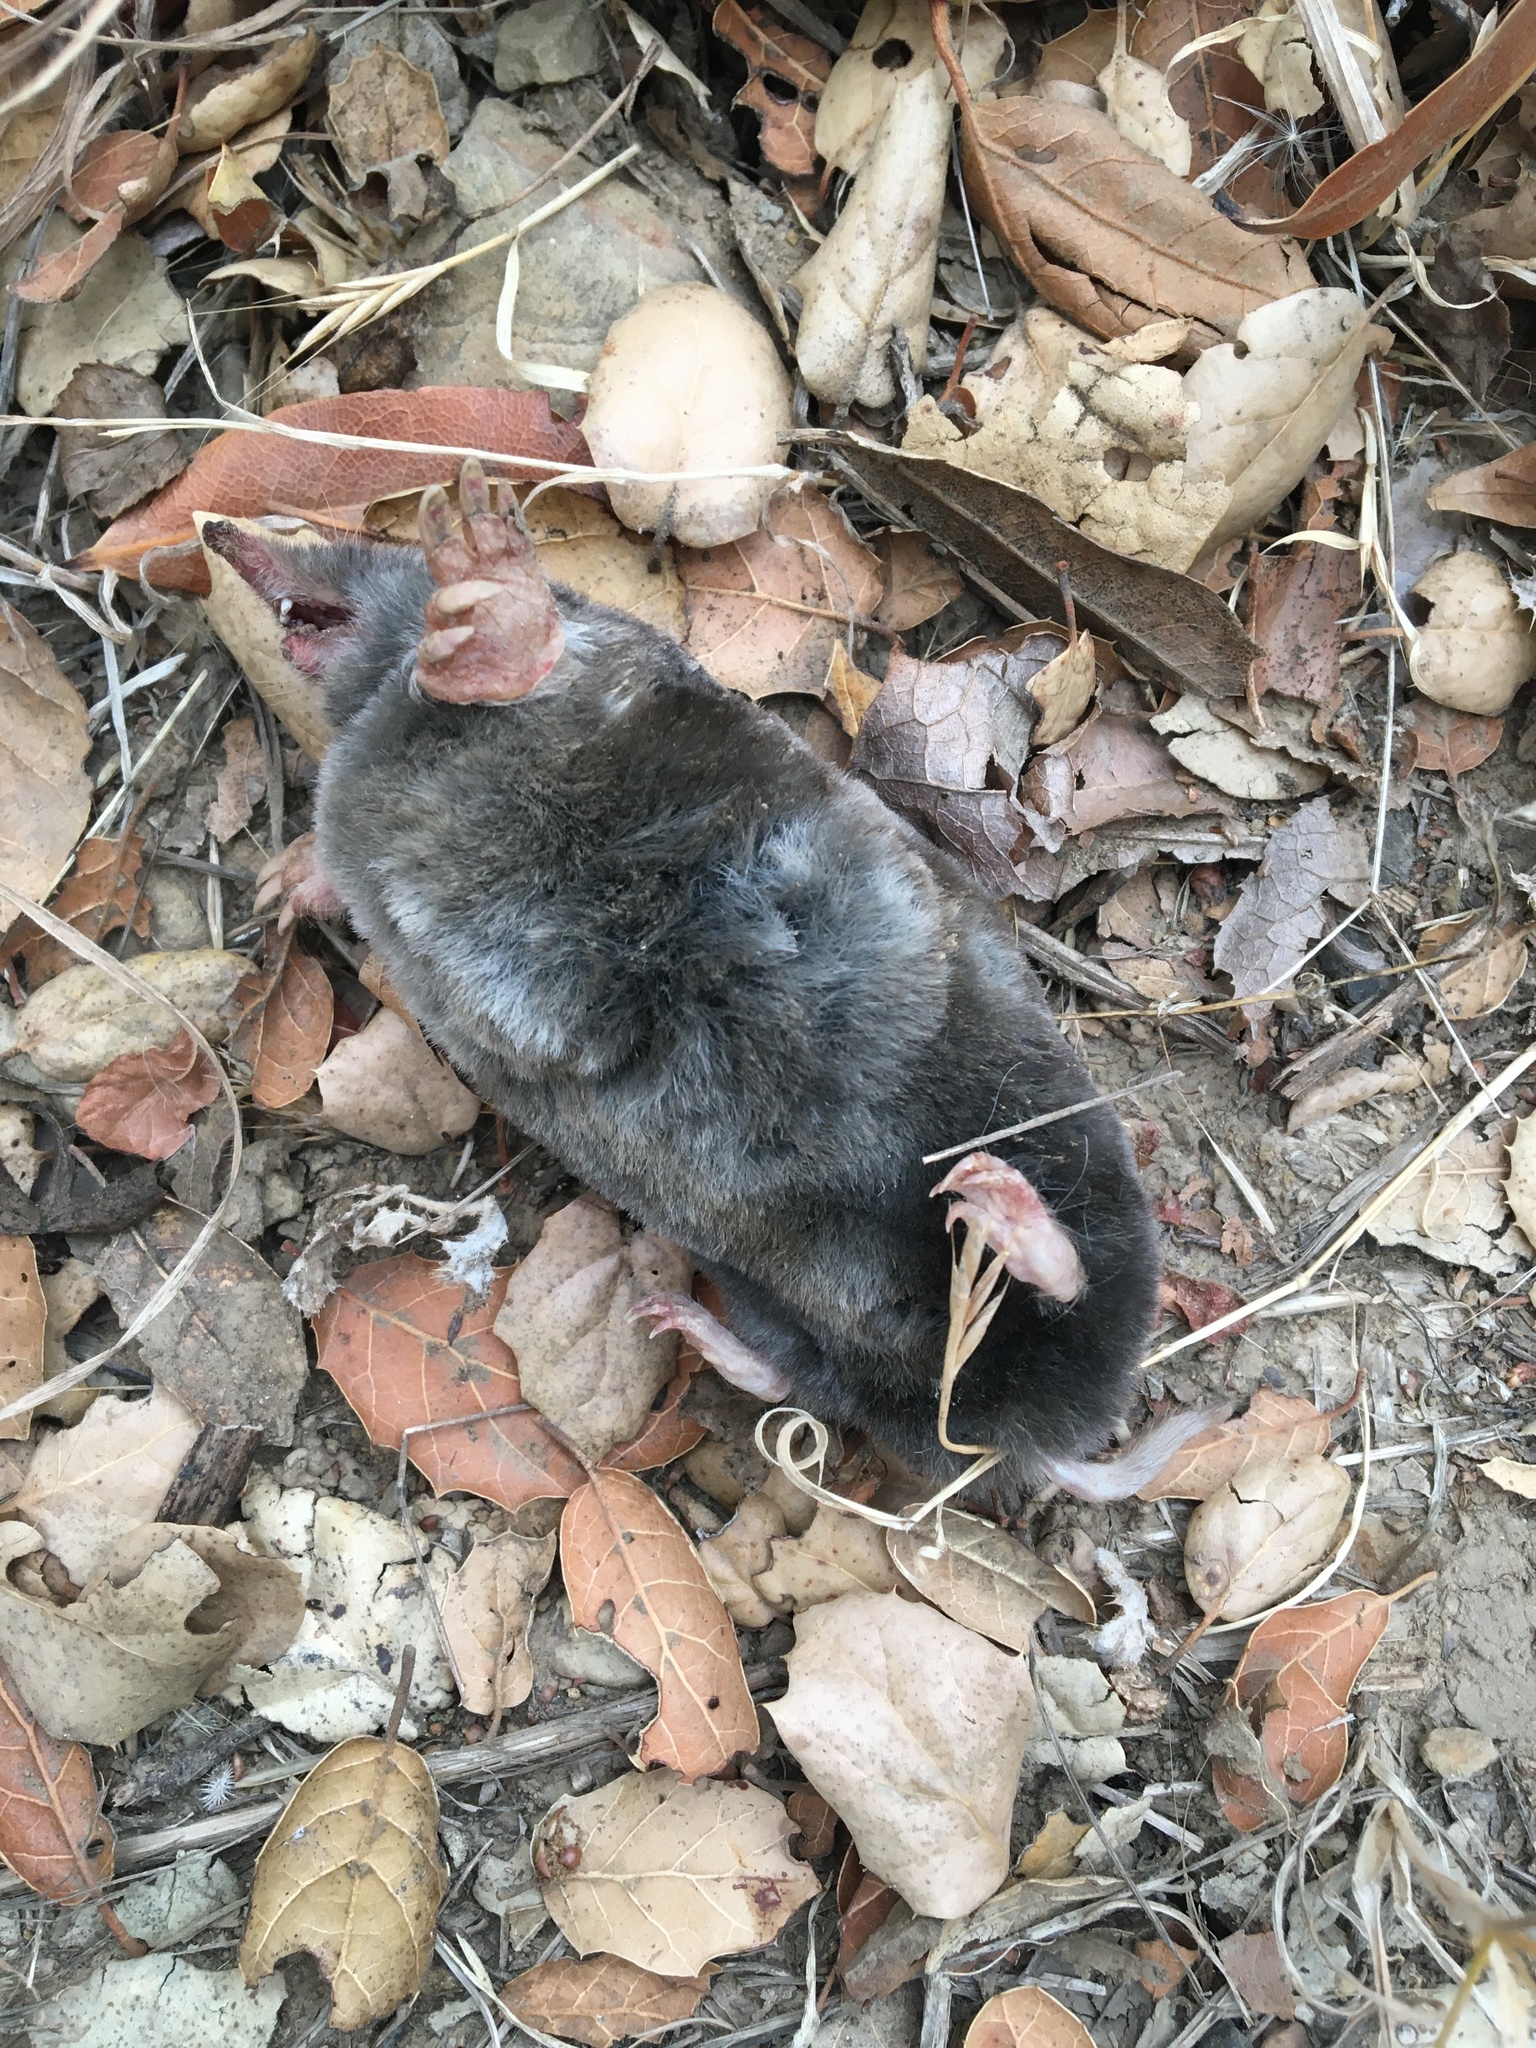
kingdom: Animalia
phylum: Chordata
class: Mammalia
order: Soricomorpha
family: Talpidae
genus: Scapanus
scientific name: Scapanus latimanus
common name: Broad-footed mole
